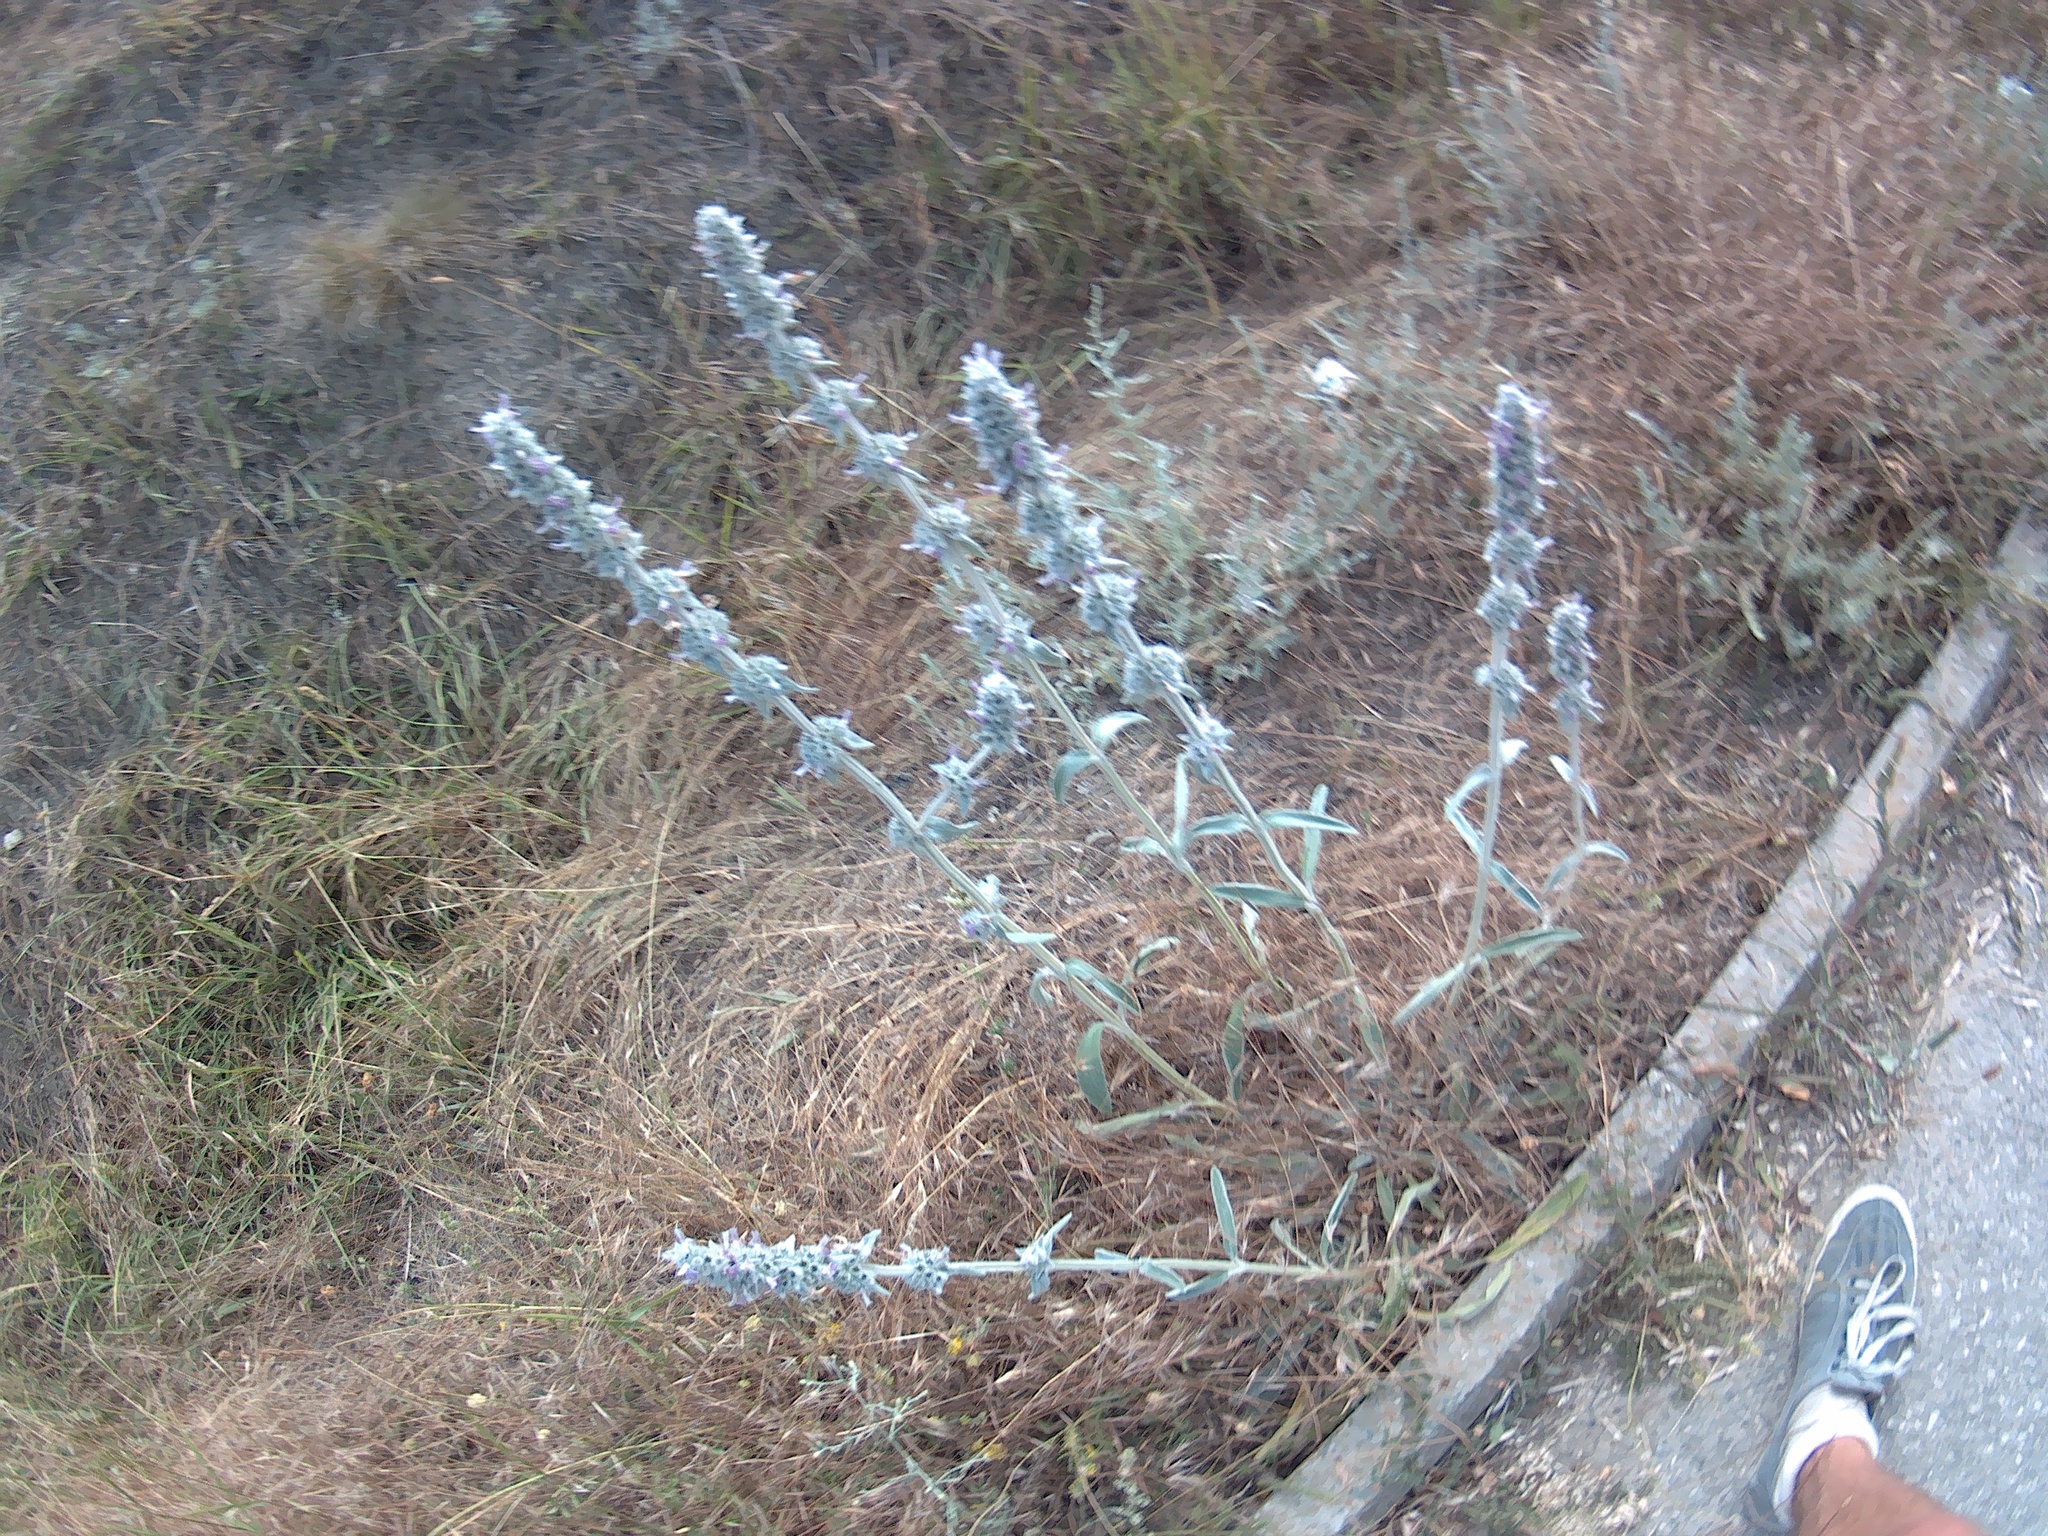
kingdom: Plantae
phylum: Tracheophyta
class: Magnoliopsida
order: Lamiales
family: Lamiaceae
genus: Stachys
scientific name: Stachys cretica
